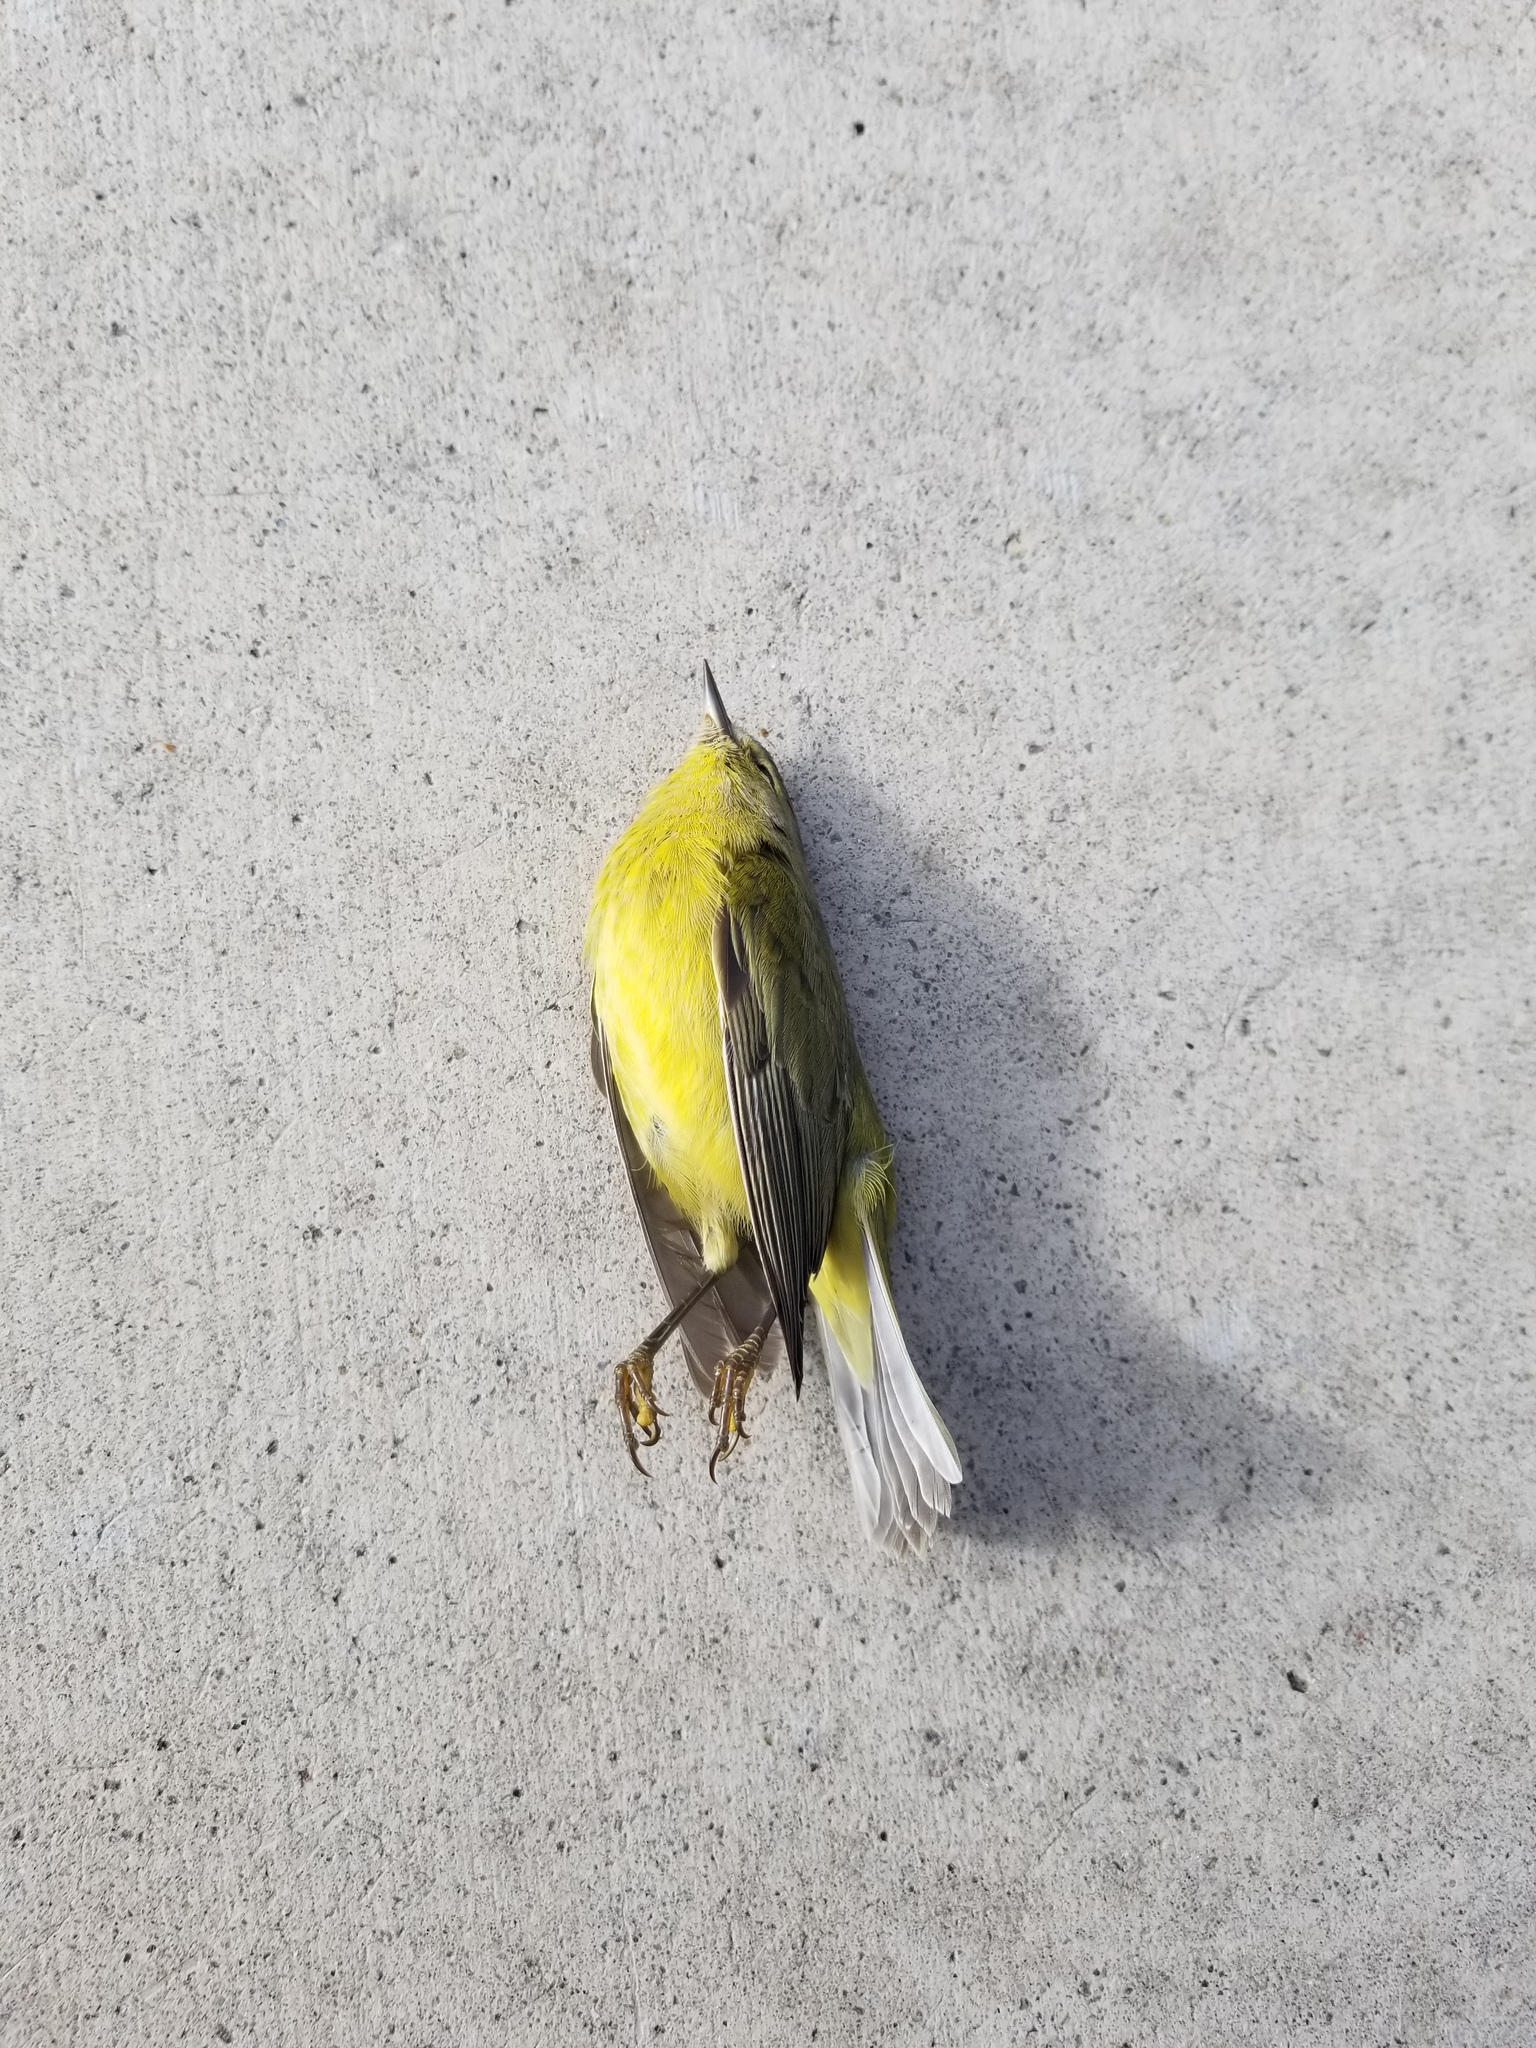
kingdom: Animalia
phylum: Chordata
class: Aves
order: Passeriformes
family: Parulidae
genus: Leiothlypis
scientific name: Leiothlypis celata
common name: Orange-crowned warbler
